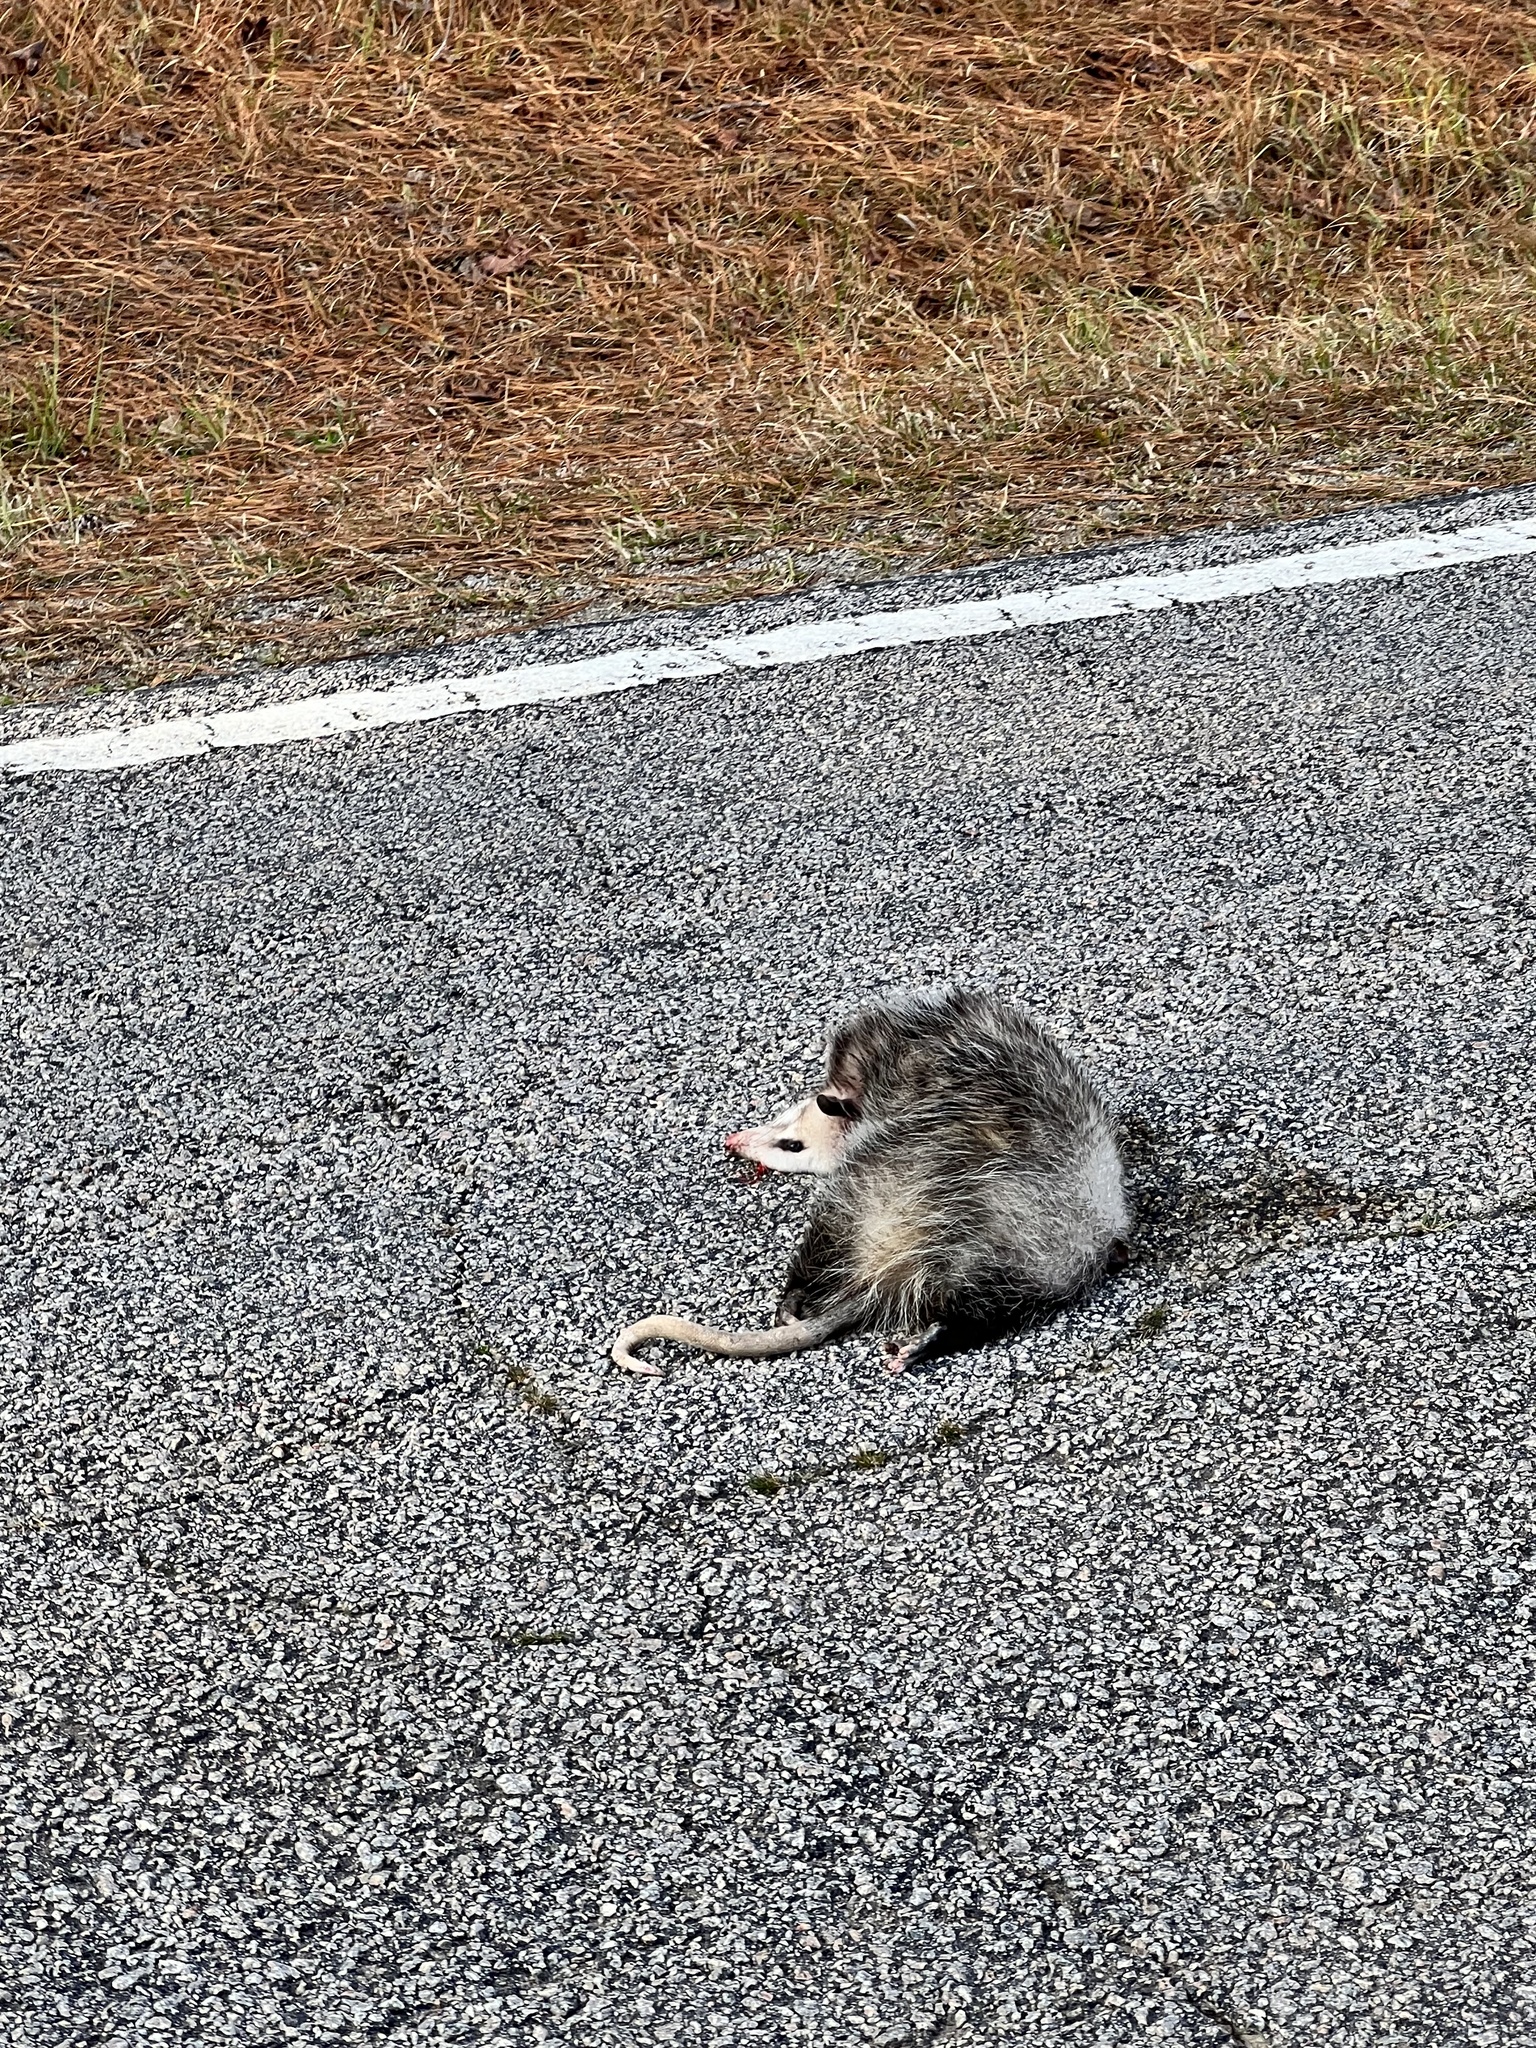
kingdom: Animalia
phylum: Chordata
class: Mammalia
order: Didelphimorphia
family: Didelphidae
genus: Didelphis
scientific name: Didelphis virginiana
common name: Virginia opossum
